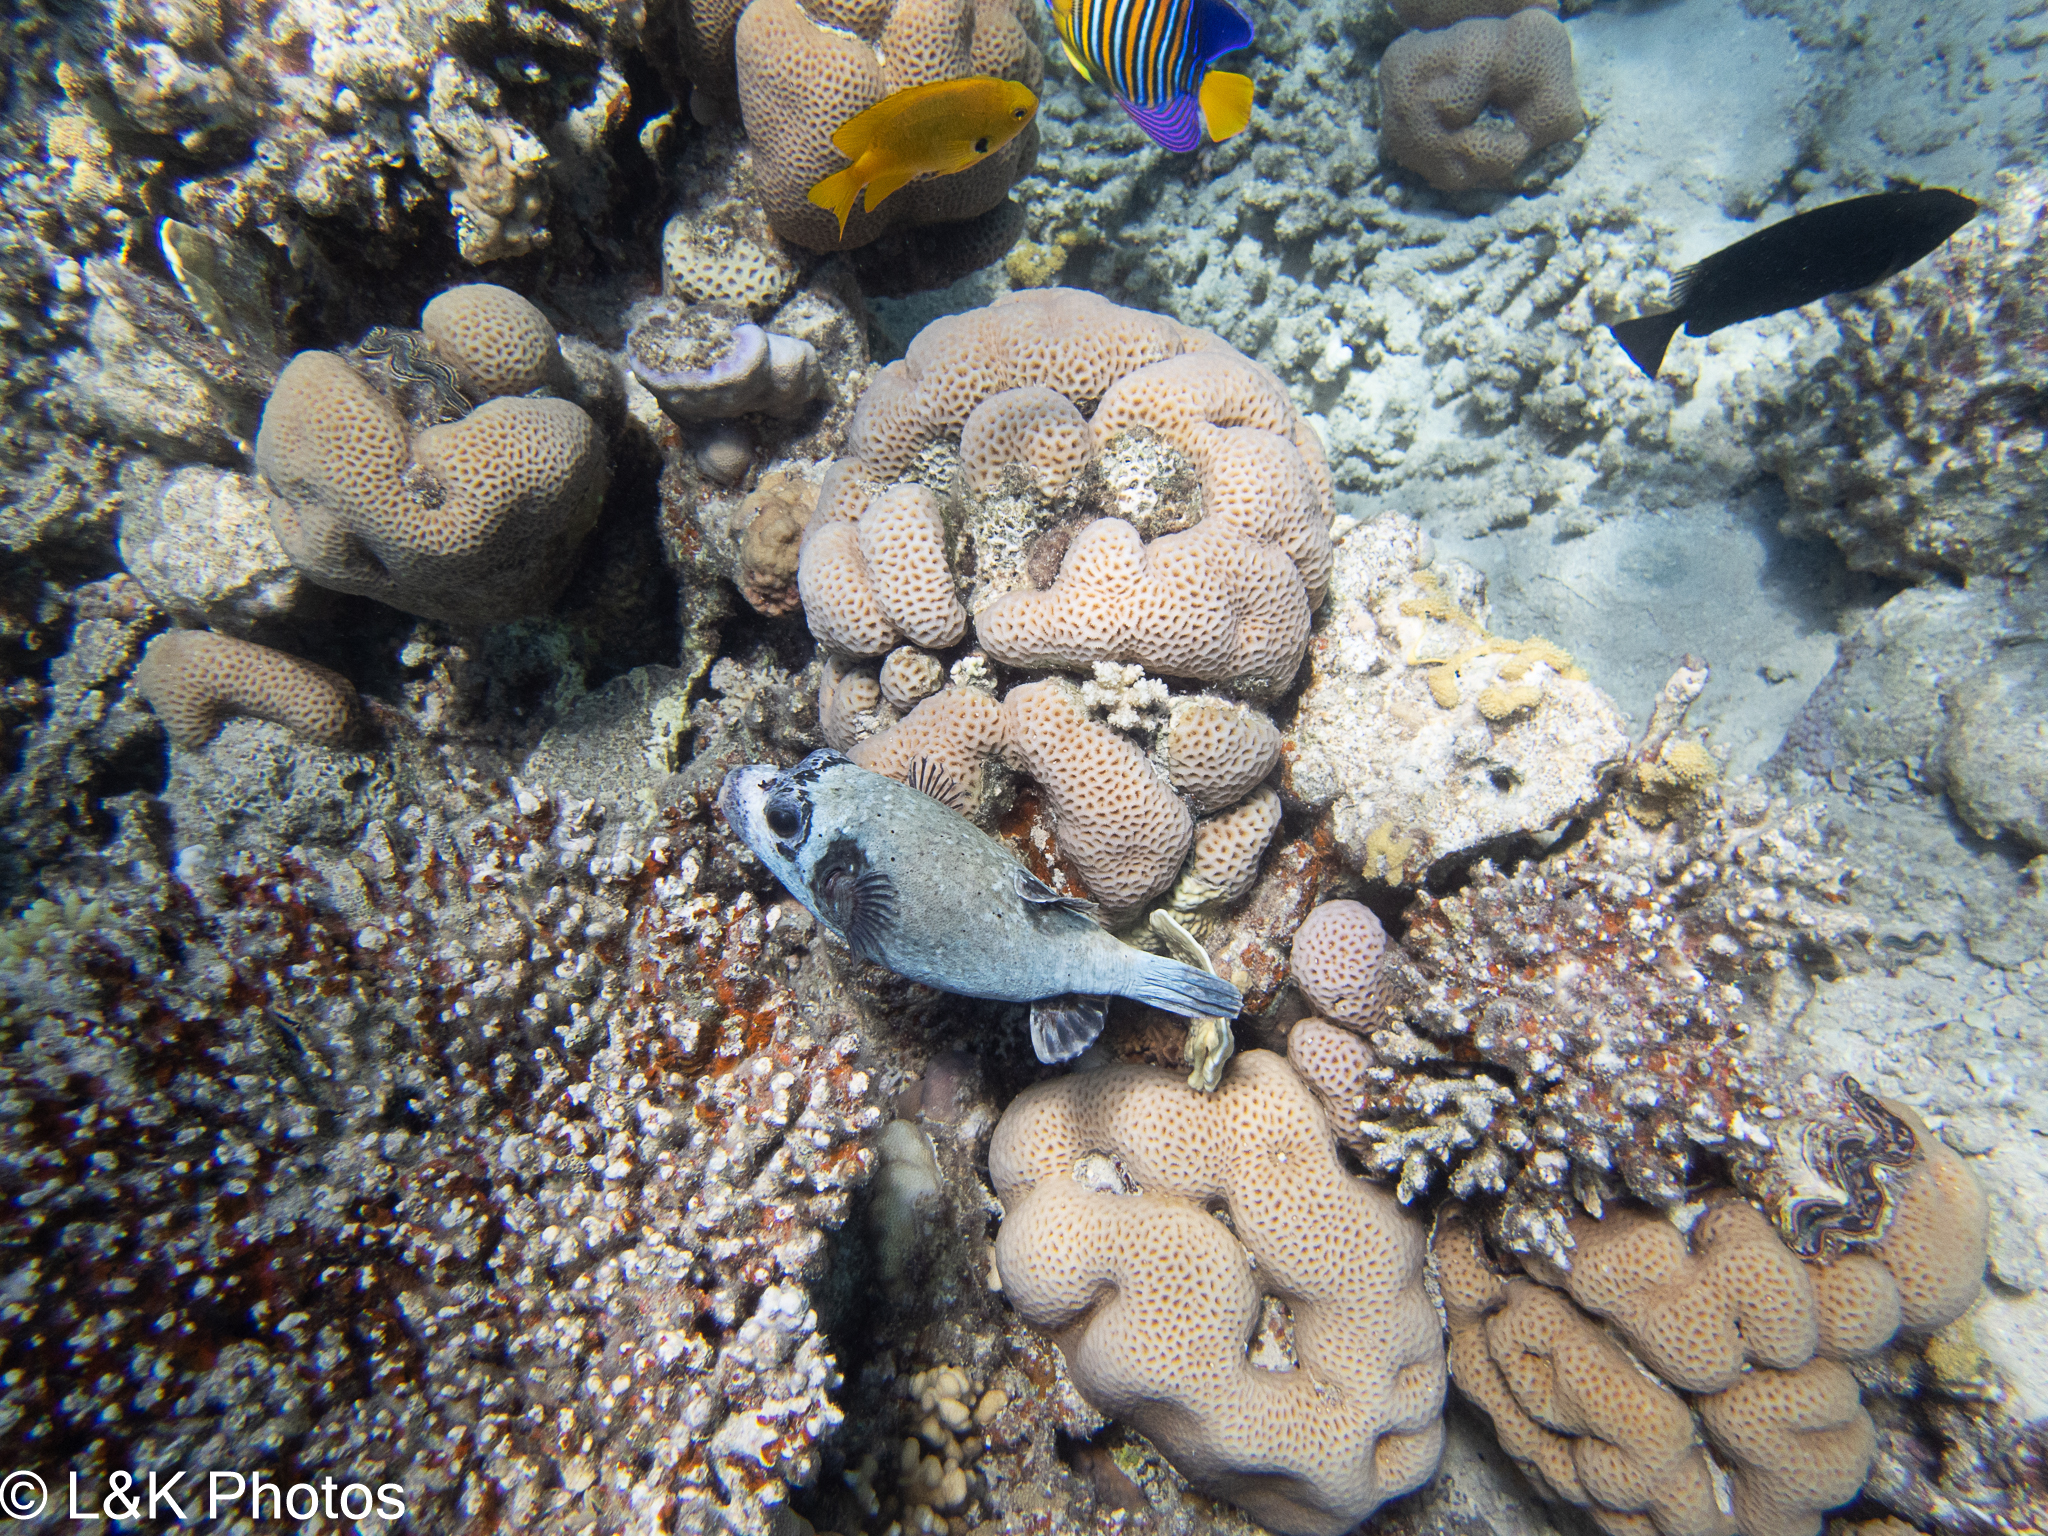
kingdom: Animalia
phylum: Chordata
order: Tetraodontiformes
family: Tetraodontidae
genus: Arothron
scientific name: Arothron diadematus
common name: Masked puffer
